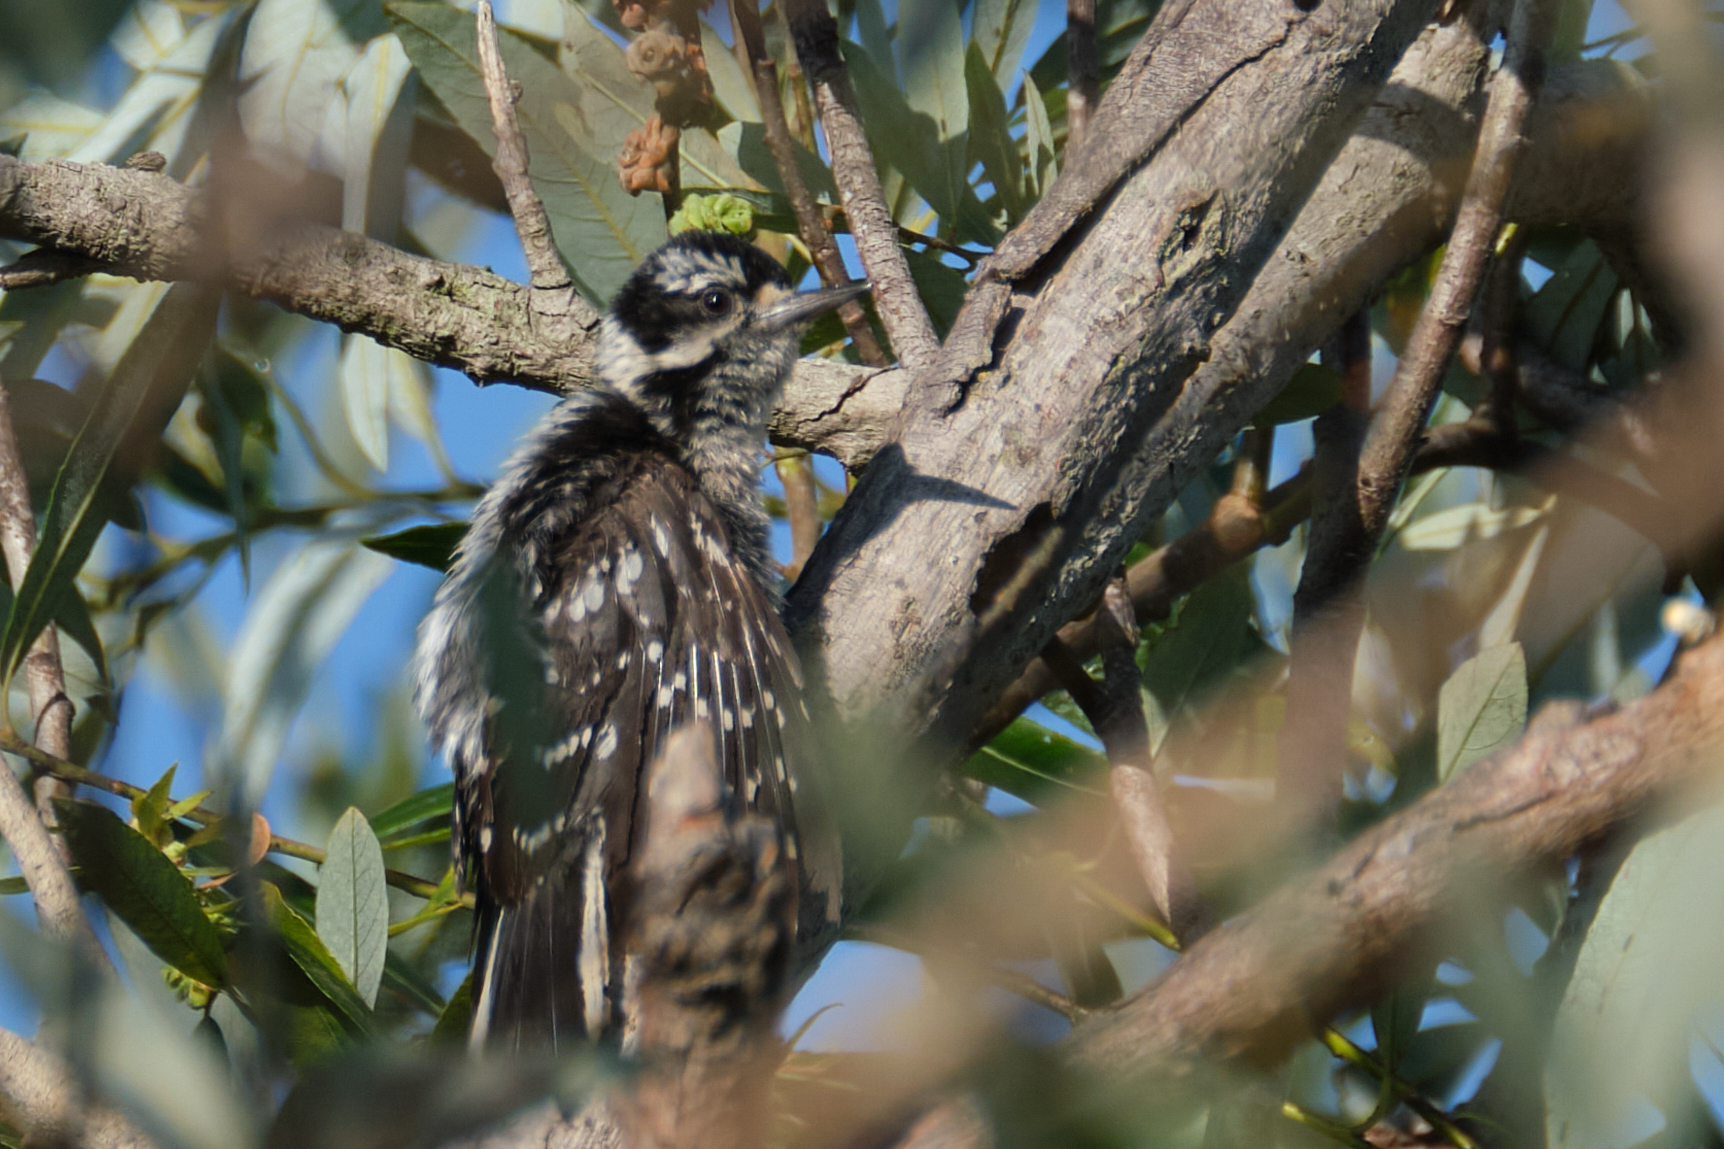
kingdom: Animalia
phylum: Chordata
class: Aves
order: Piciformes
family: Picidae
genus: Dryobates
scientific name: Dryobates pubescens
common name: Downy woodpecker
